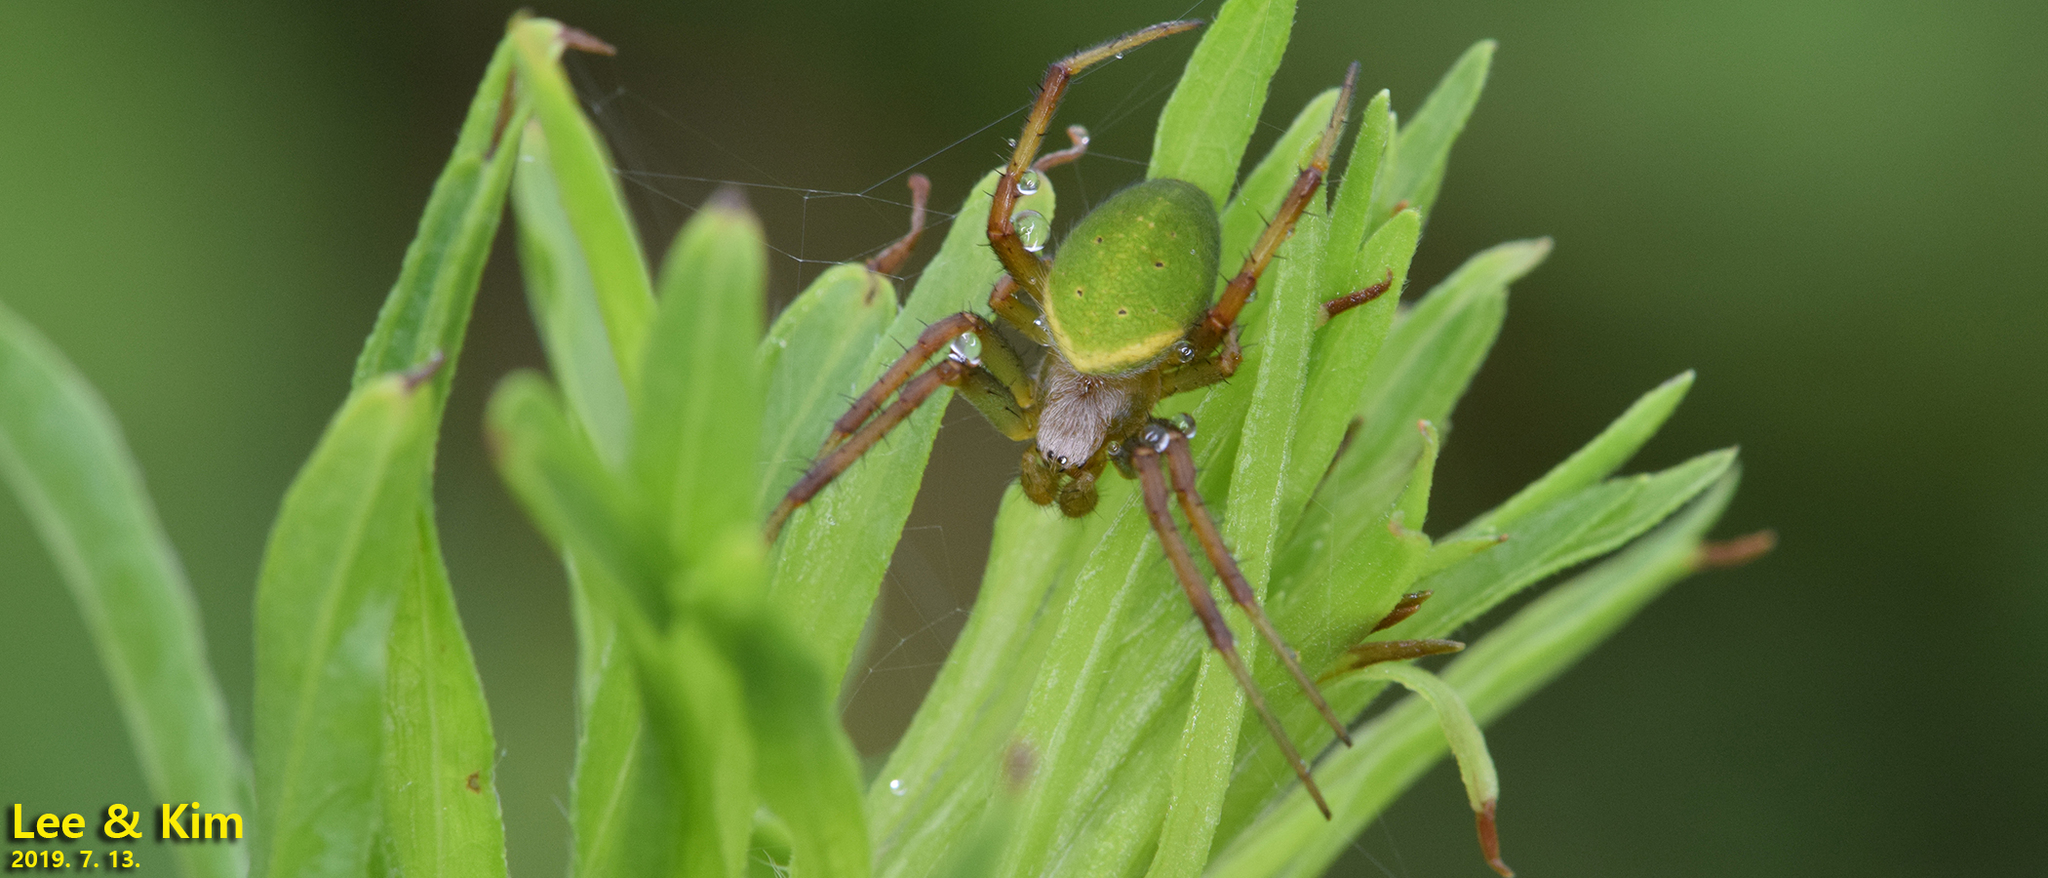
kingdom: Animalia
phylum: Arthropoda
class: Arachnida
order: Araneae
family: Araneidae
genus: Neoscona
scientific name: Neoscona scylloides
